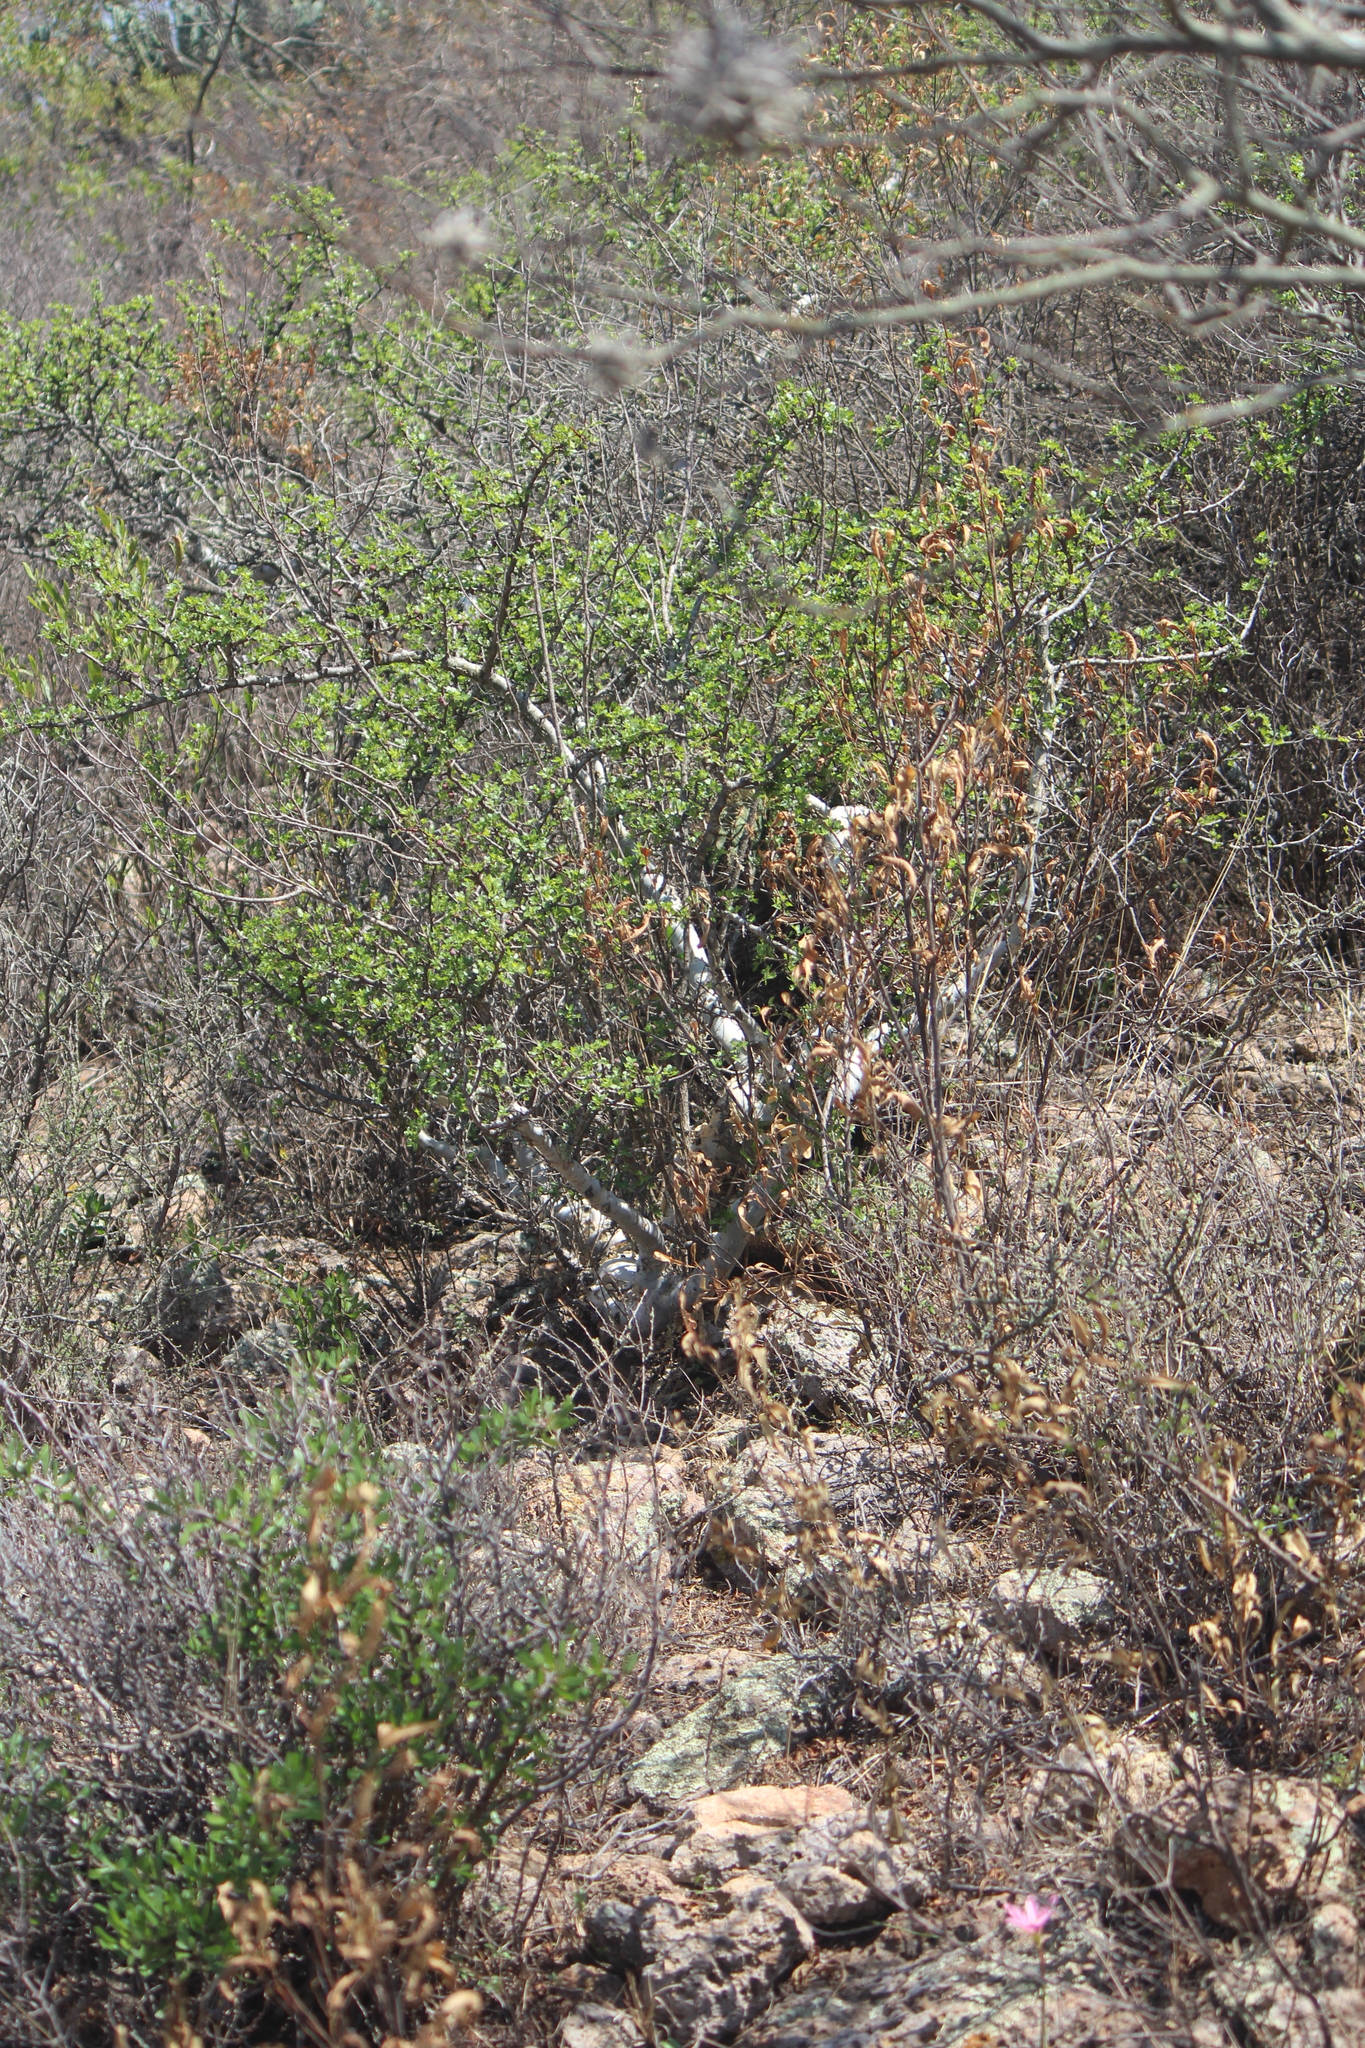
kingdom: Plantae
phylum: Tracheophyta
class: Magnoliopsida
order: Sapindales
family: Burseraceae
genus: Bursera
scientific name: Bursera fagaroides
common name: Elephant tree
